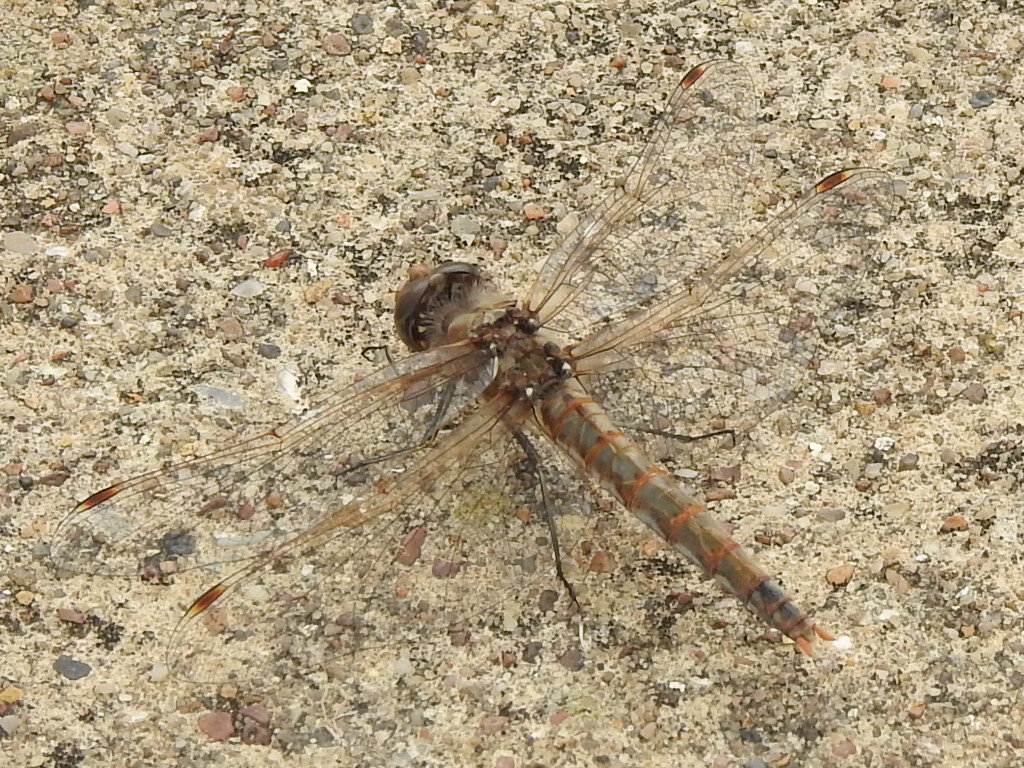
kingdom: Animalia
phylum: Arthropoda
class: Insecta
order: Odonata
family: Libellulidae
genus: Sympetrum
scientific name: Sympetrum corruptum
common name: Variegated meadowhawk
